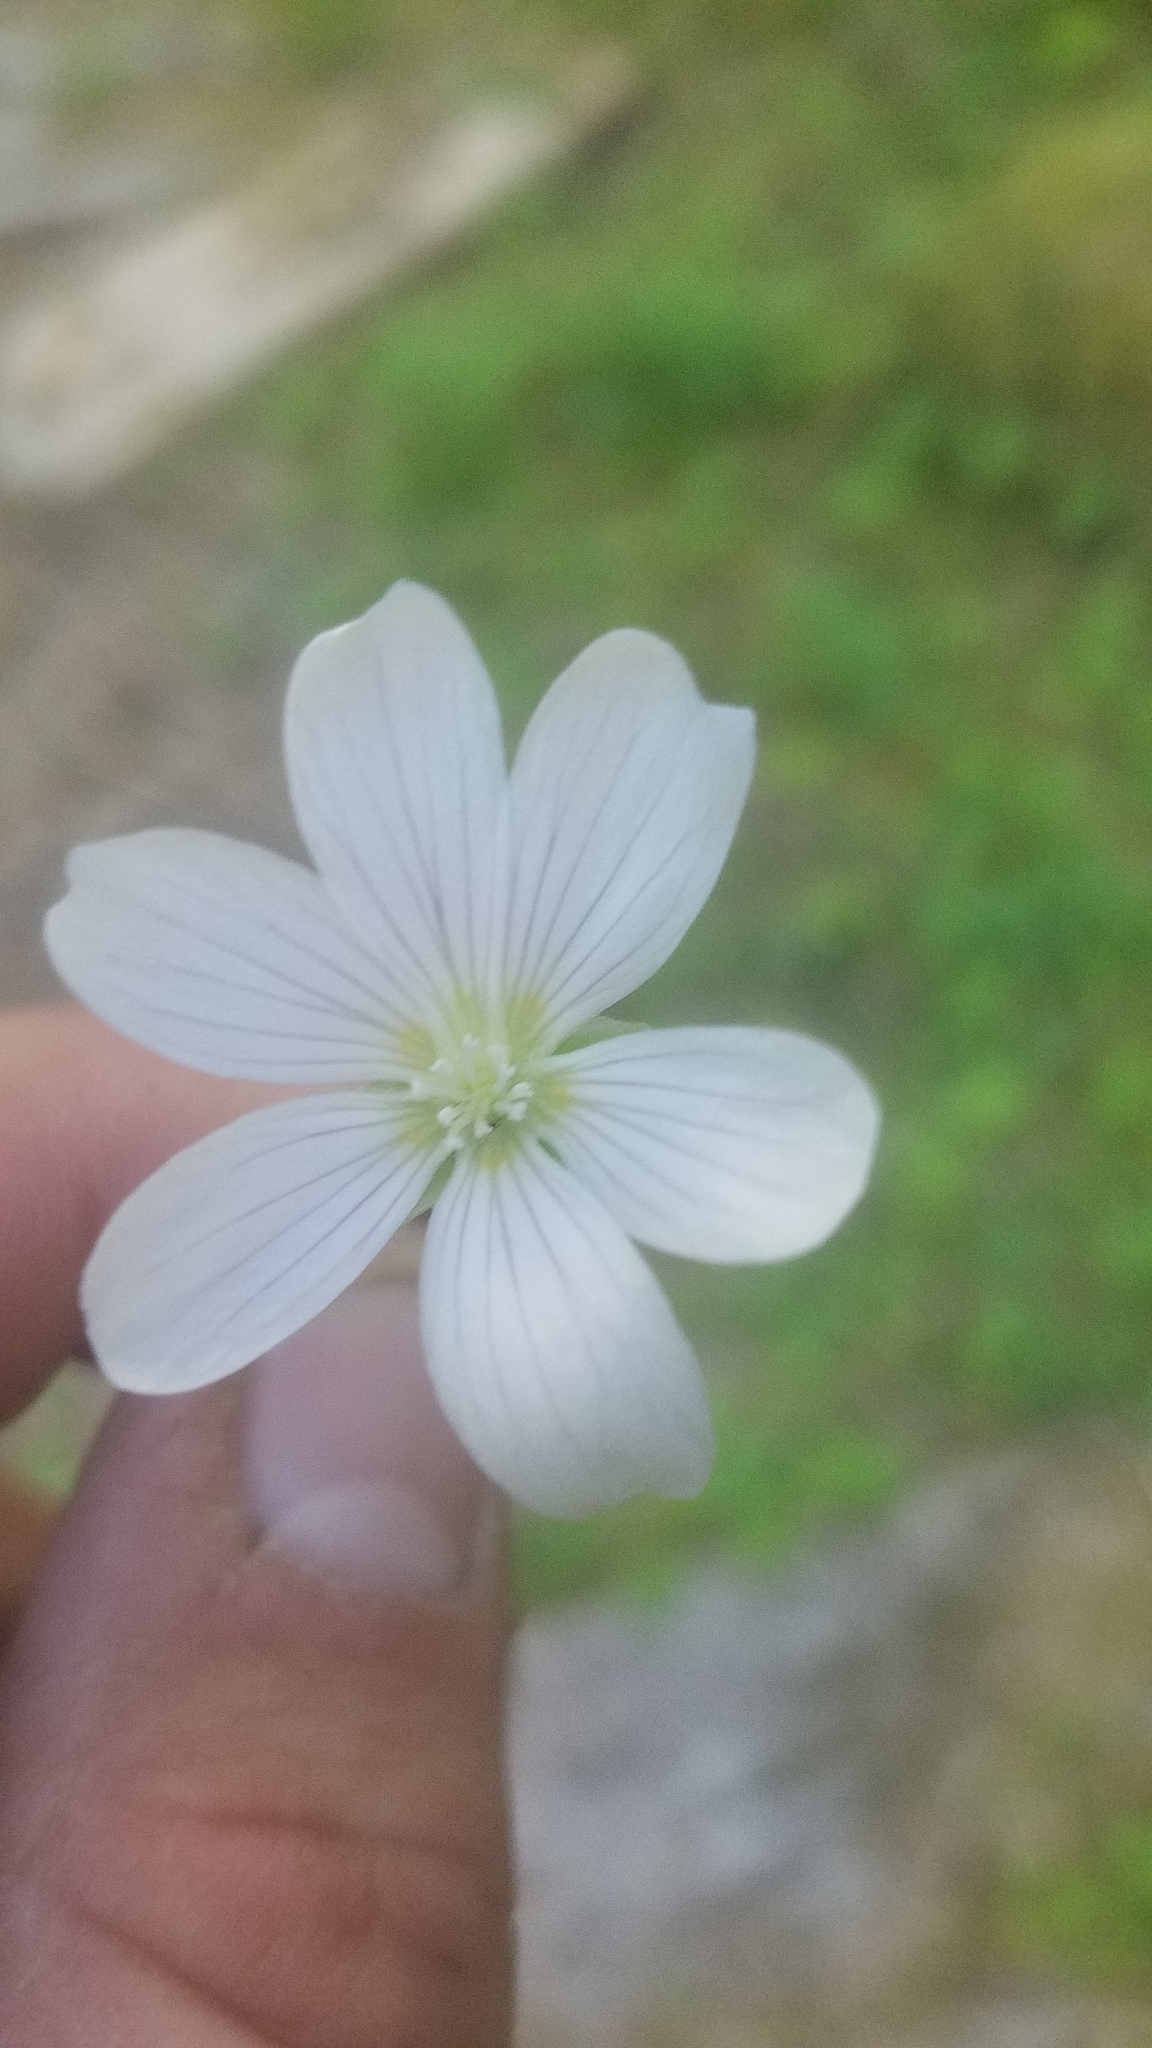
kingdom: Plantae
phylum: Tracheophyta
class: Magnoliopsida
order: Oxalidales
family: Oxalidaceae
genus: Oxalis
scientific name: Oxalis oregana
